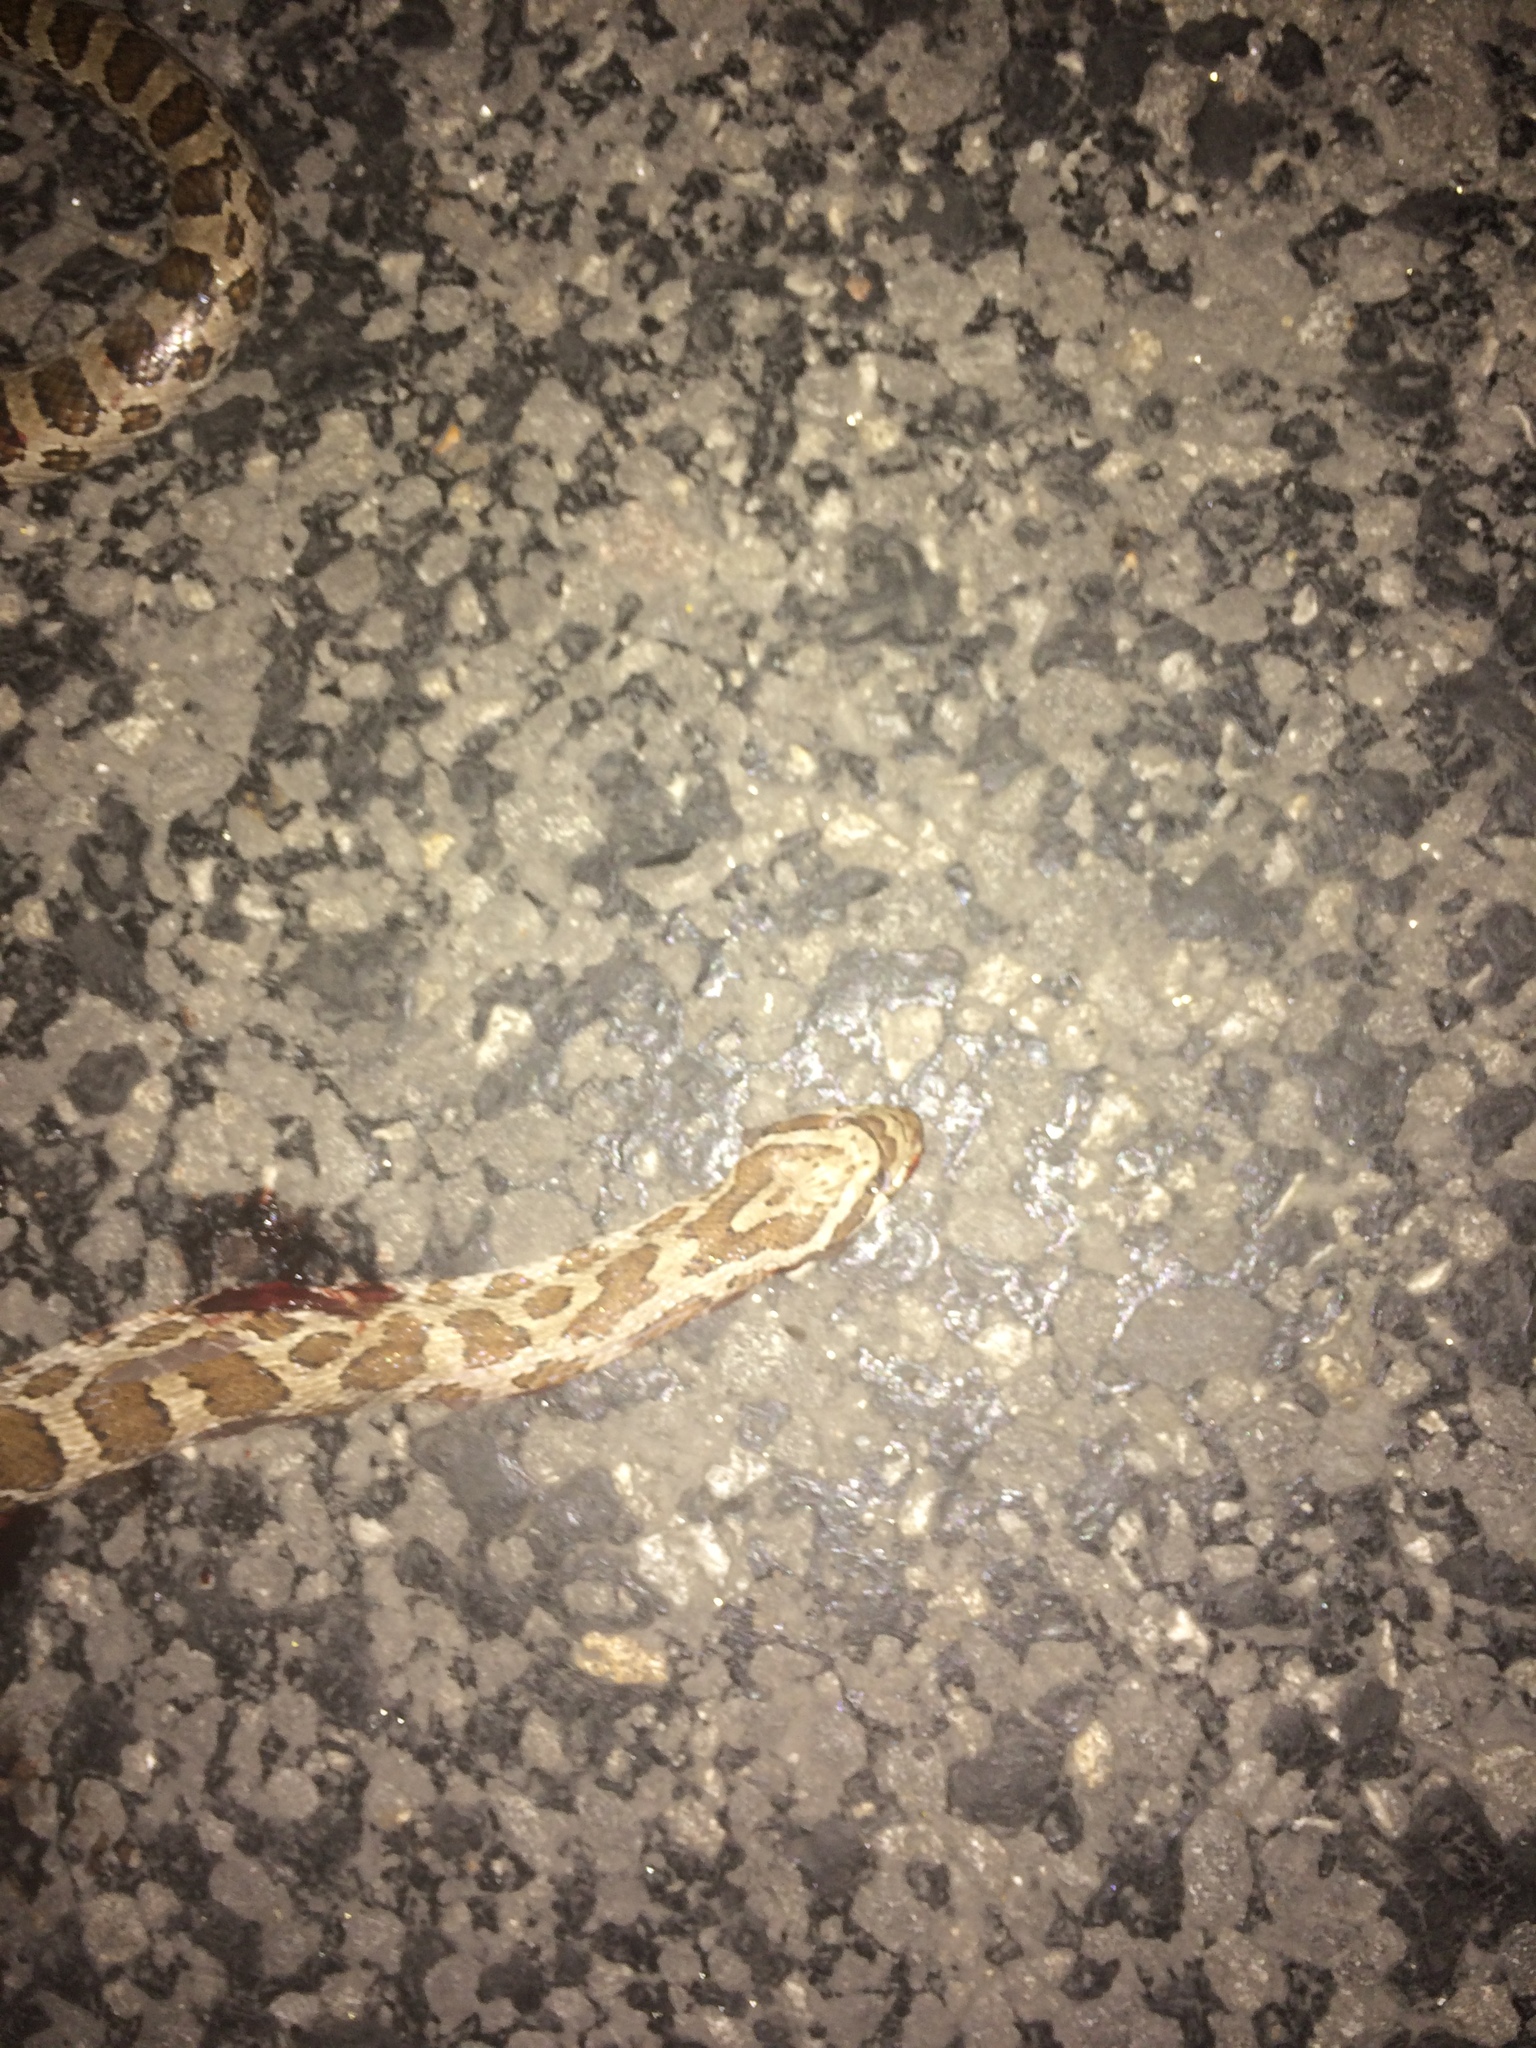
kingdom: Animalia
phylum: Chordata
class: Squamata
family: Colubridae
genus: Pantherophis
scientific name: Pantherophis emoryi
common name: Great plains rat snake
